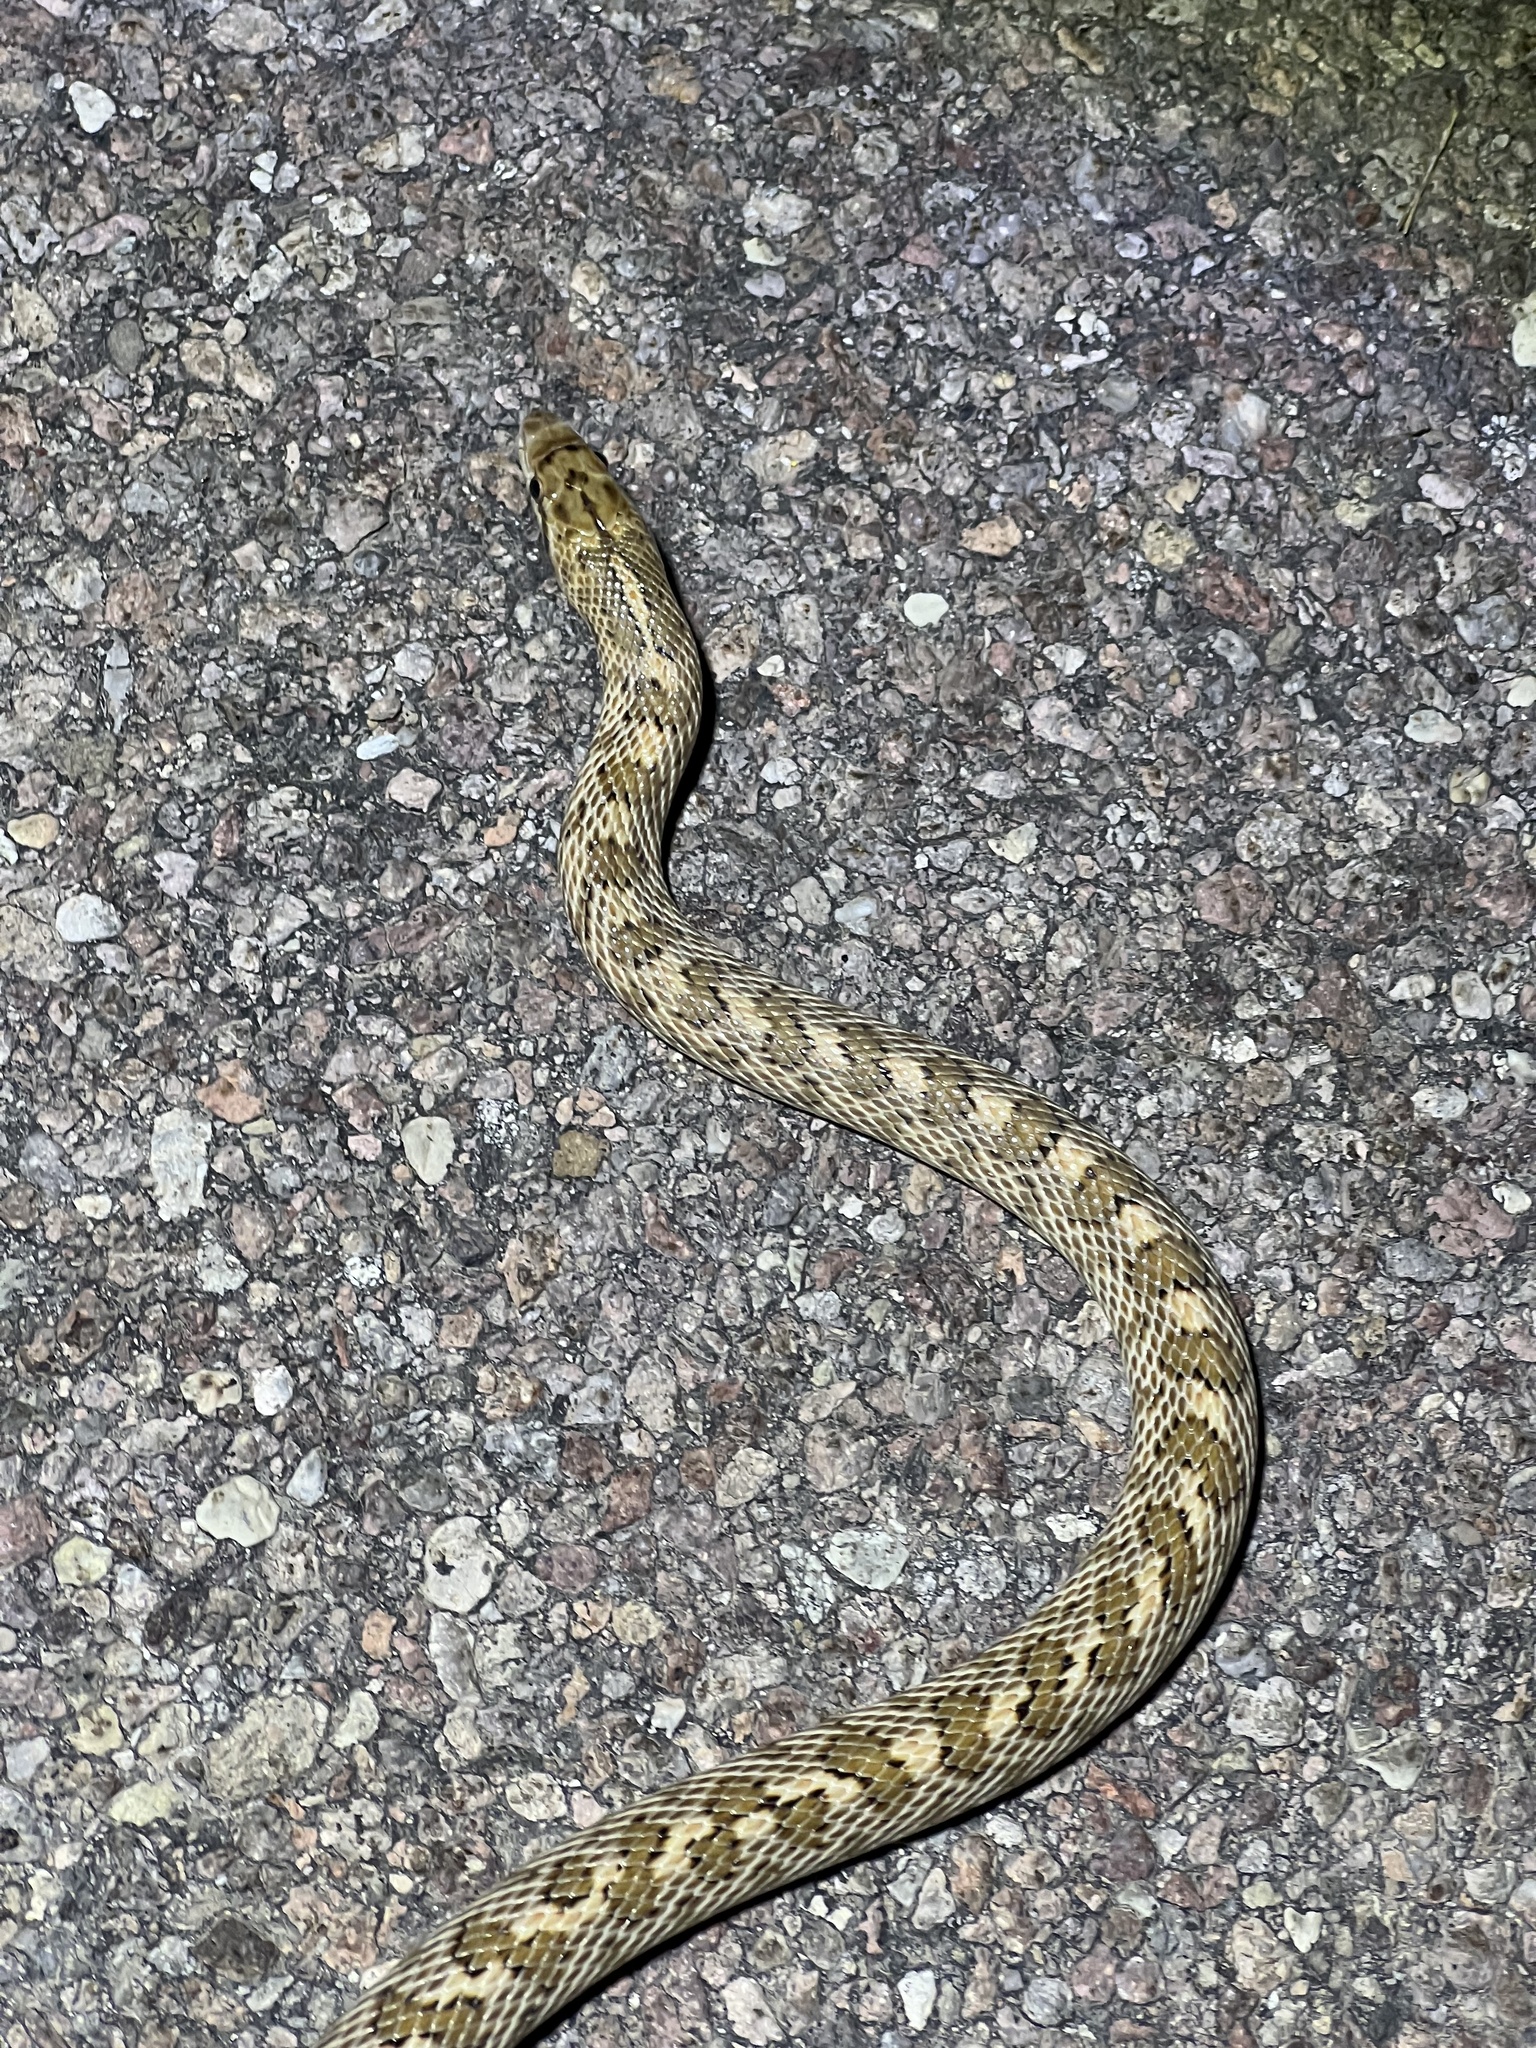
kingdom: Animalia
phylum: Chordata
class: Squamata
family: Colubridae
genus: Arizona
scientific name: Arizona elegans
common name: Glossy snake
